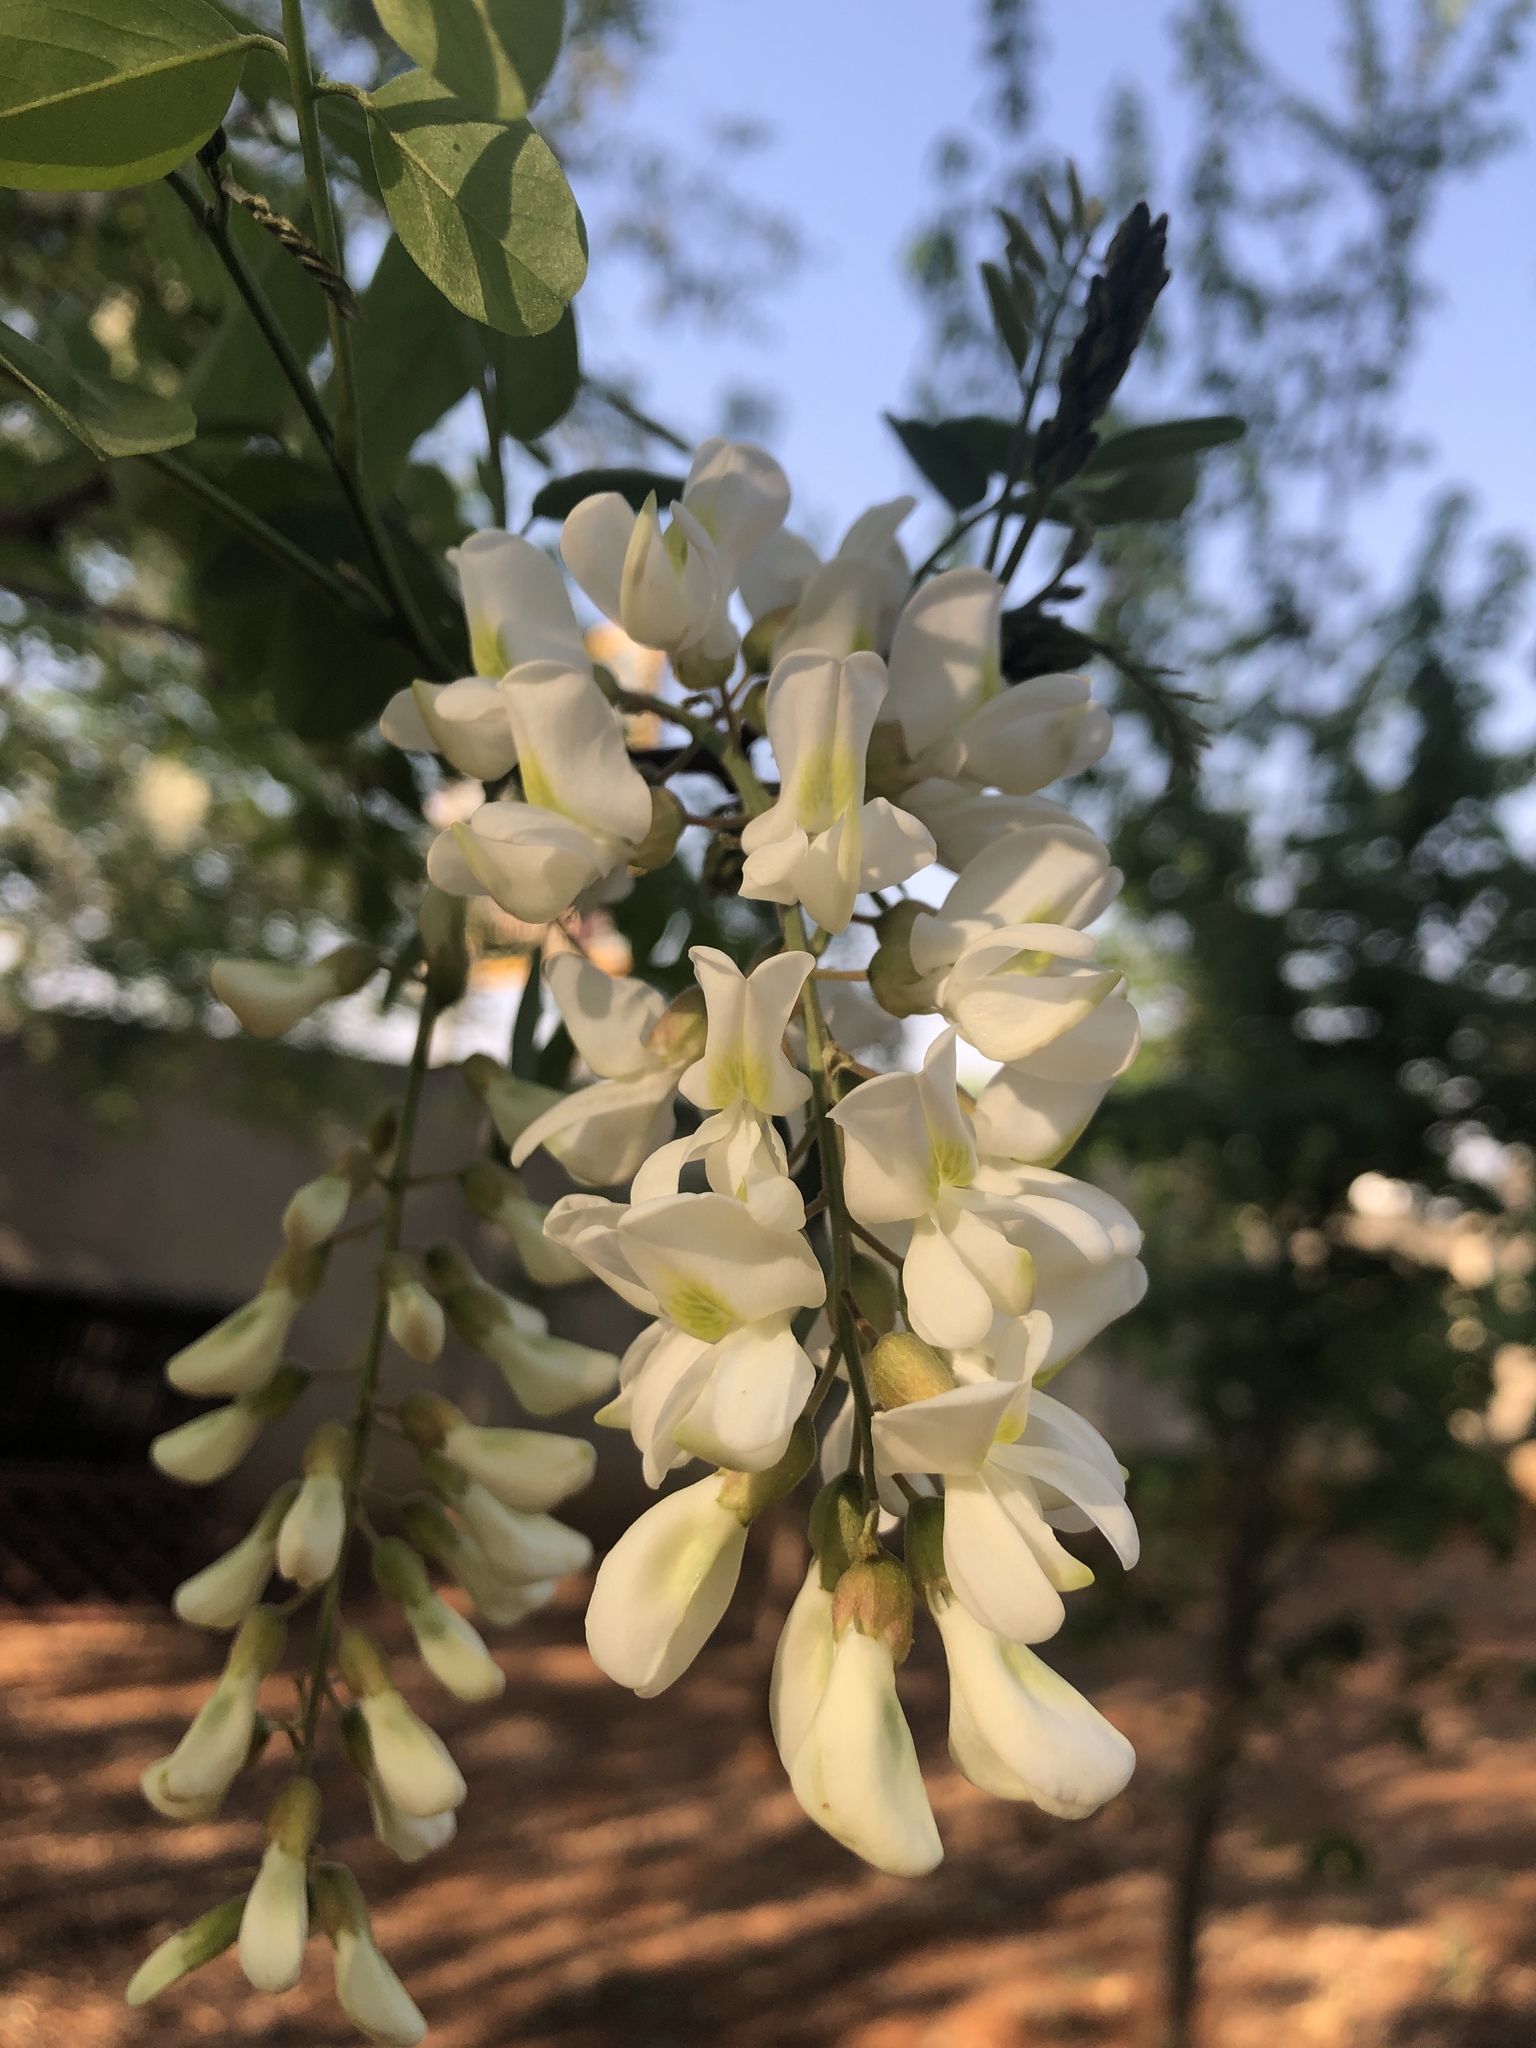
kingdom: Plantae
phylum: Tracheophyta
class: Magnoliopsida
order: Fabales
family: Fabaceae
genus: Robinia
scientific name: Robinia pseudoacacia
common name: Black locust
